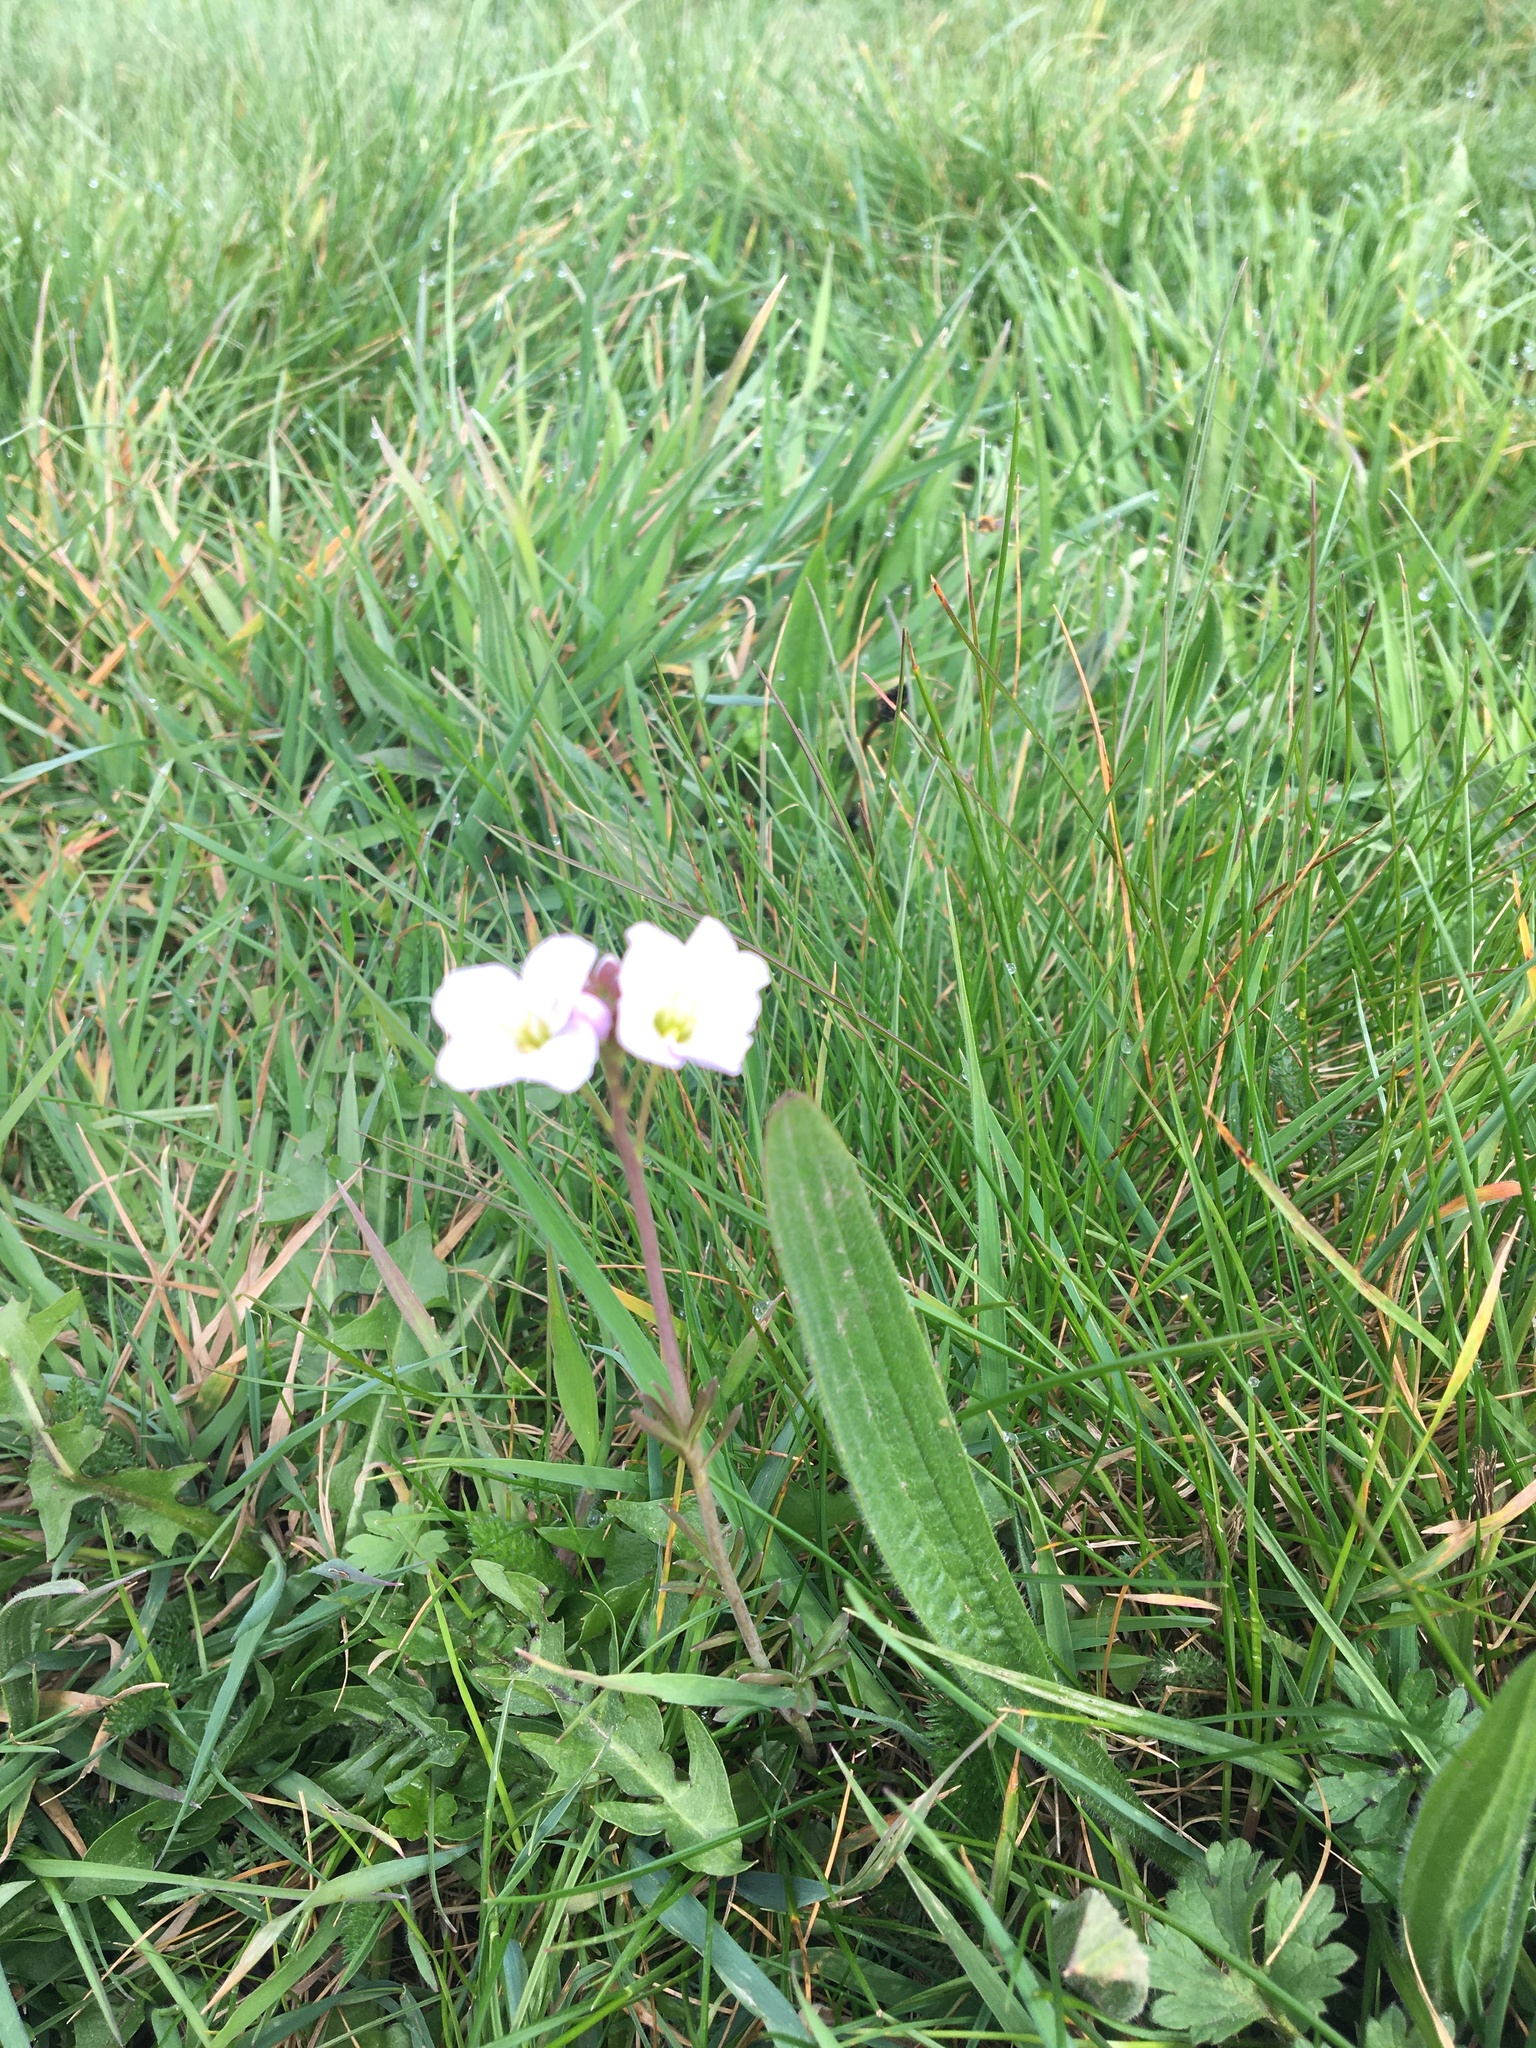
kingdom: Plantae
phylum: Tracheophyta
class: Magnoliopsida
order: Brassicales
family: Brassicaceae
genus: Cardamine
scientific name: Cardamine pratensis
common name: Cuckoo flower
